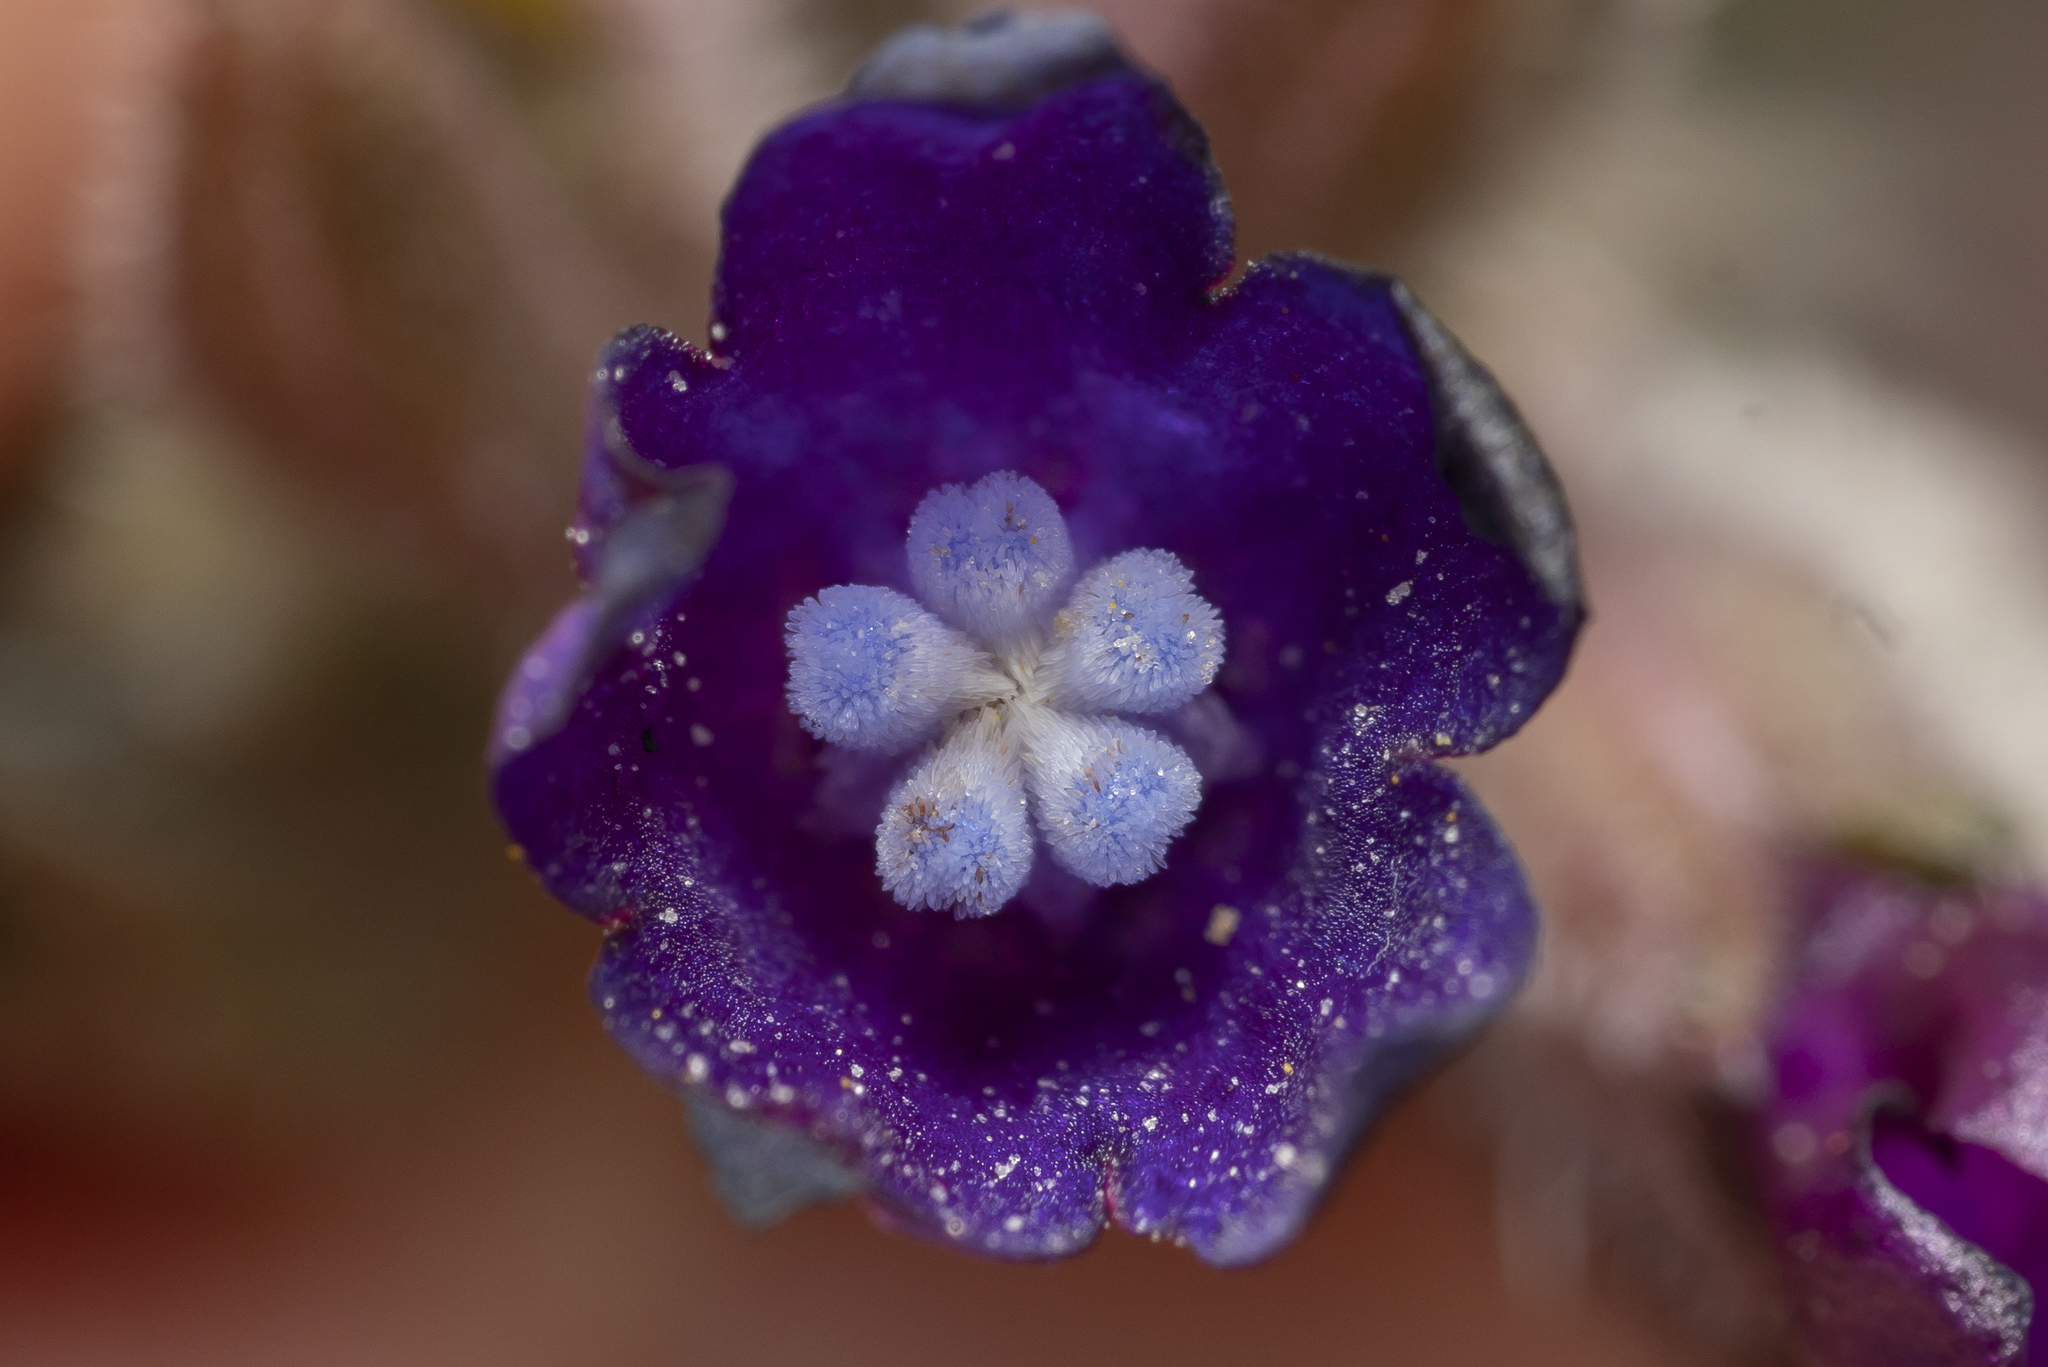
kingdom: Plantae
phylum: Tracheophyta
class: Magnoliopsida
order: Boraginales
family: Boraginaceae
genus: Anchusa
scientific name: Anchusa hybrida
